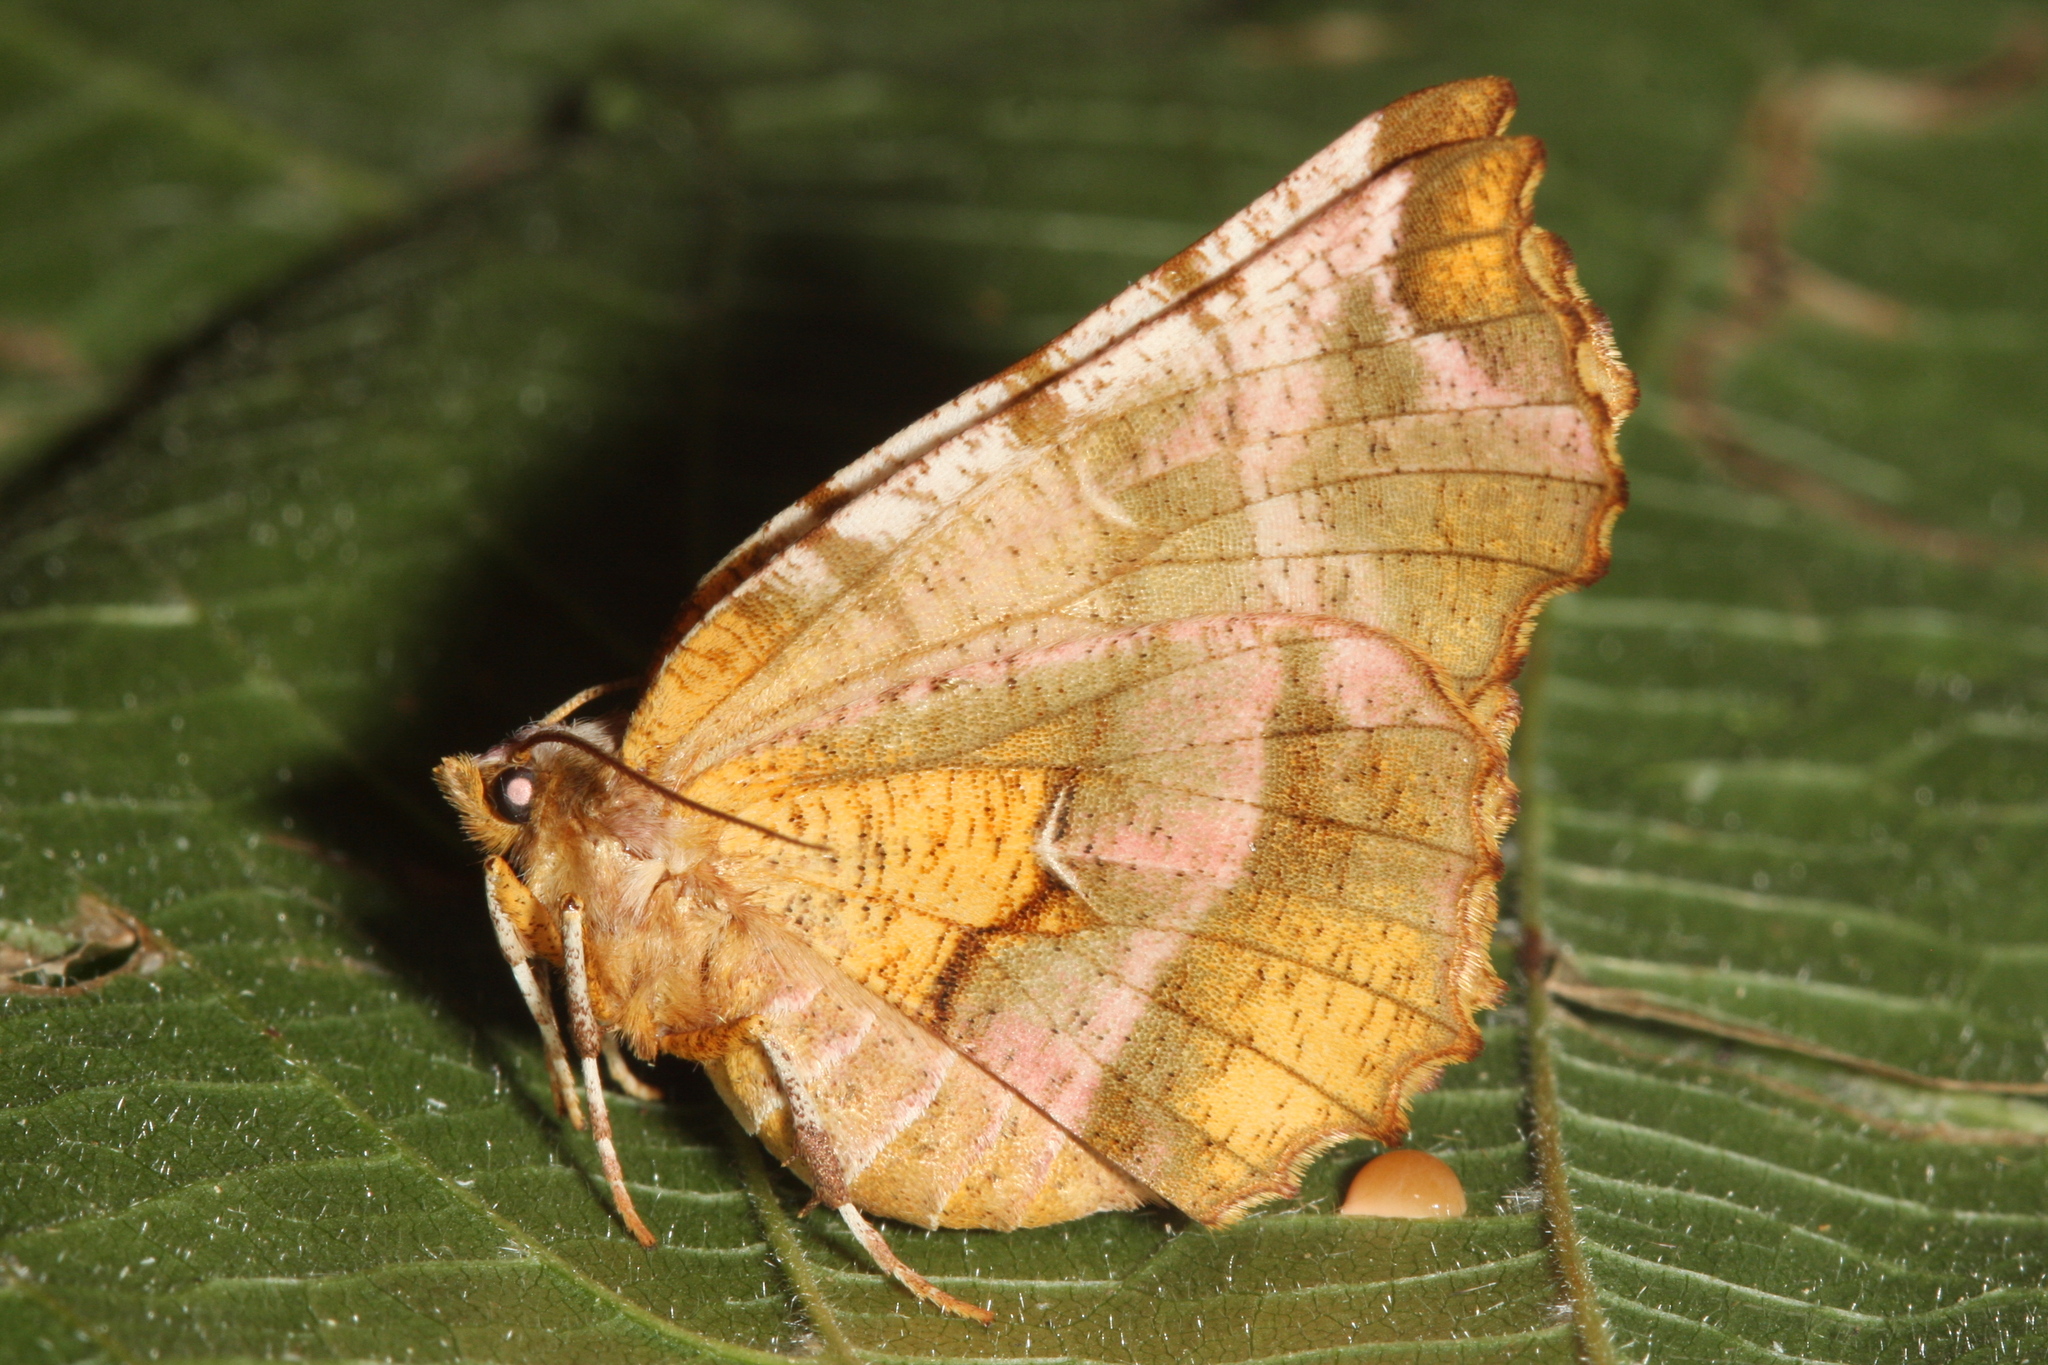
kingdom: Animalia
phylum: Arthropoda
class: Insecta
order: Lepidoptera
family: Geometridae
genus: Selenia
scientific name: Selenia dentaria
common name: Early thorn
